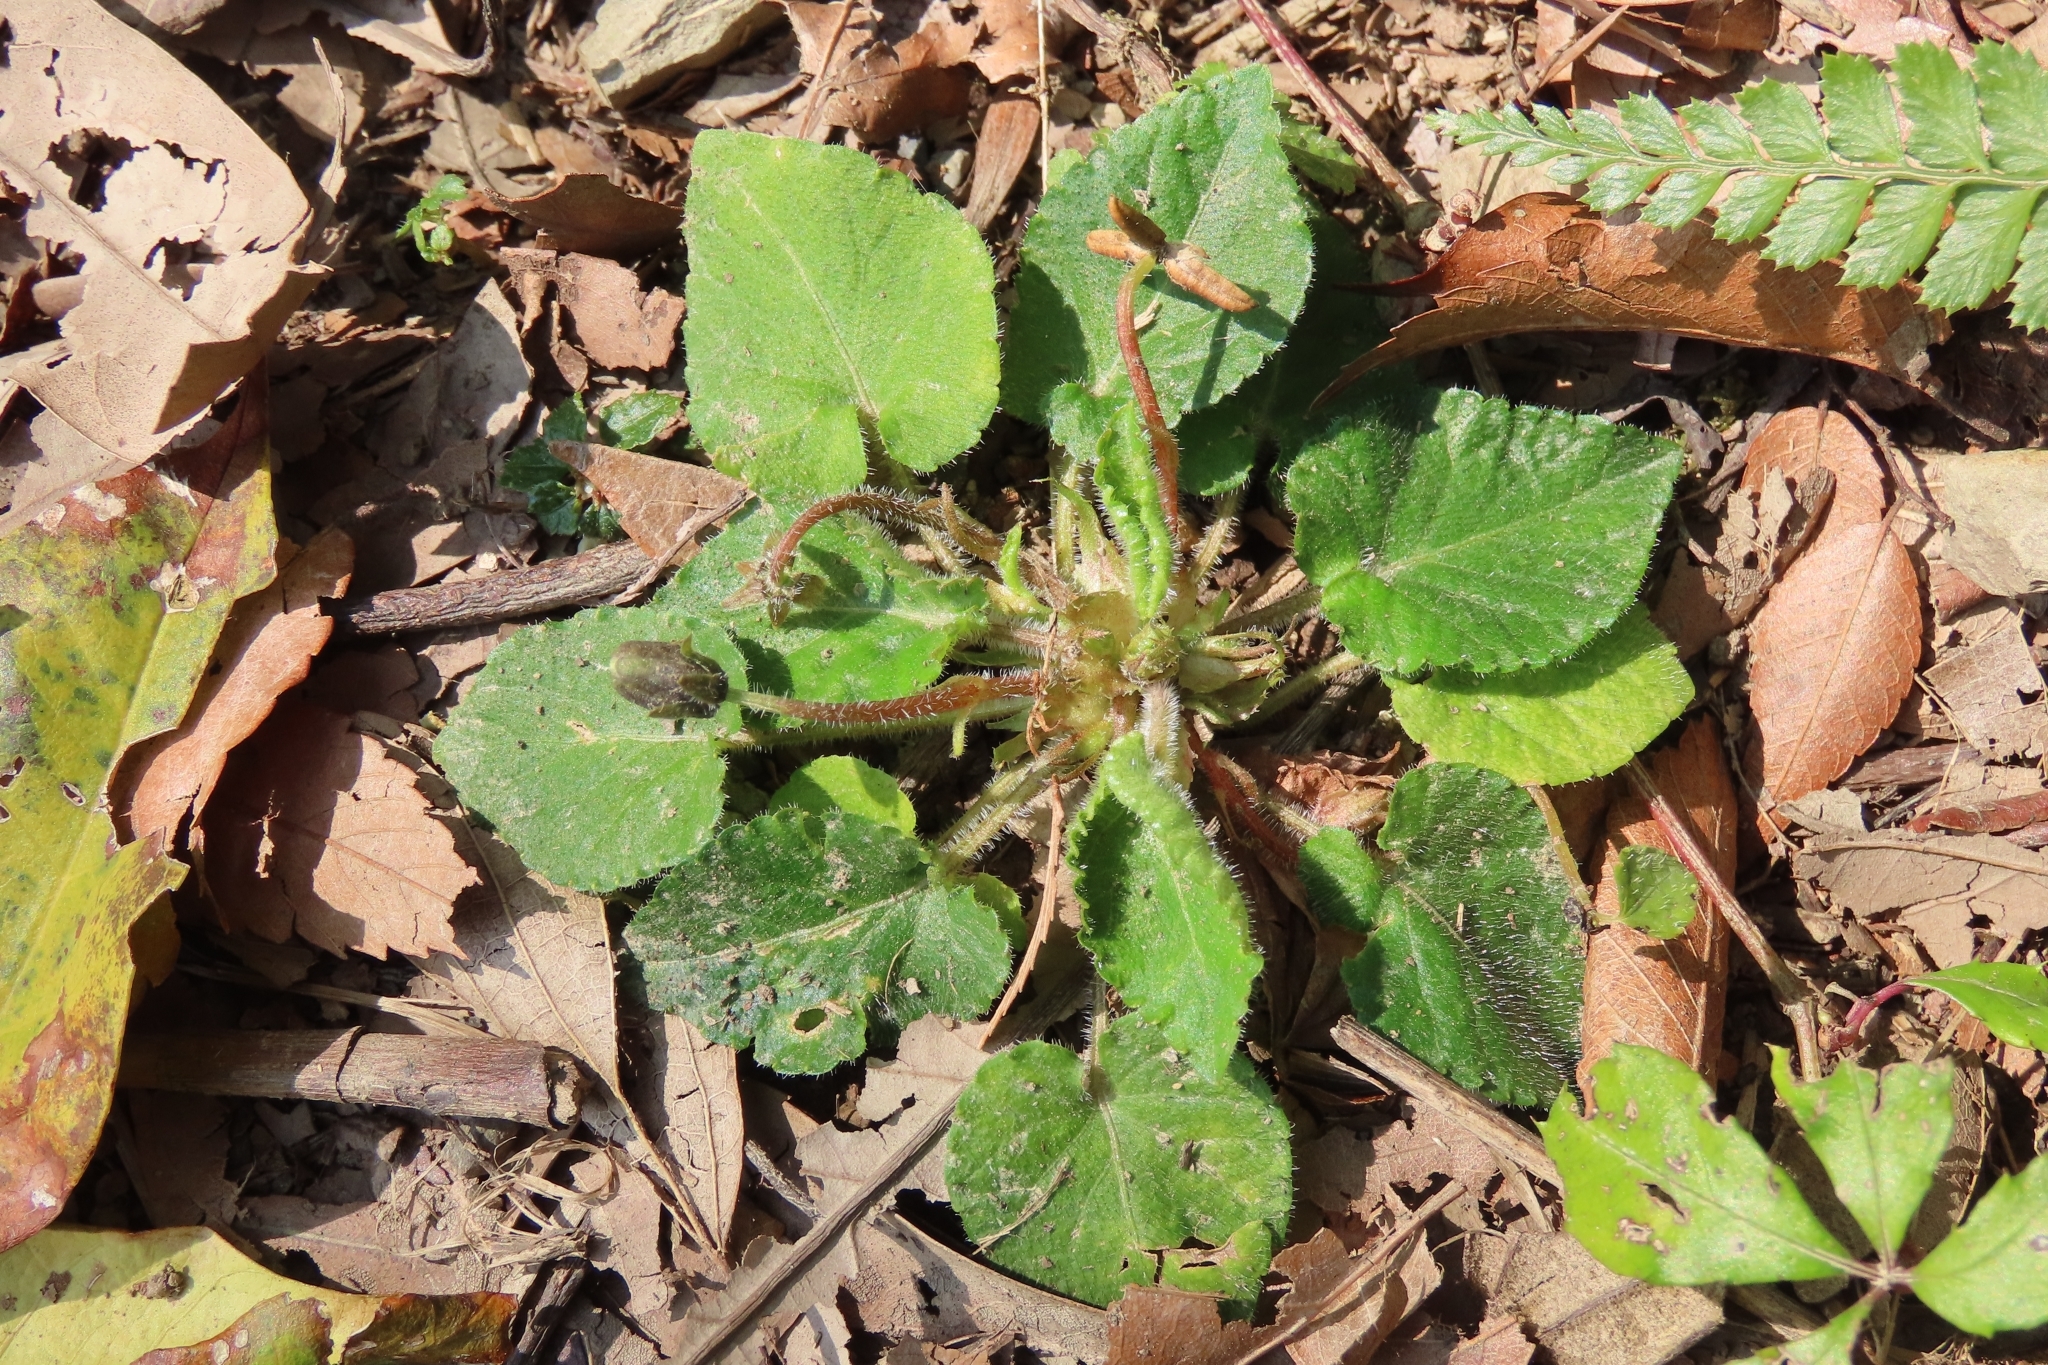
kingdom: Plantae
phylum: Tracheophyta
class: Magnoliopsida
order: Malpighiales
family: Violaceae
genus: Viola
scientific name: Viola adenothrix
